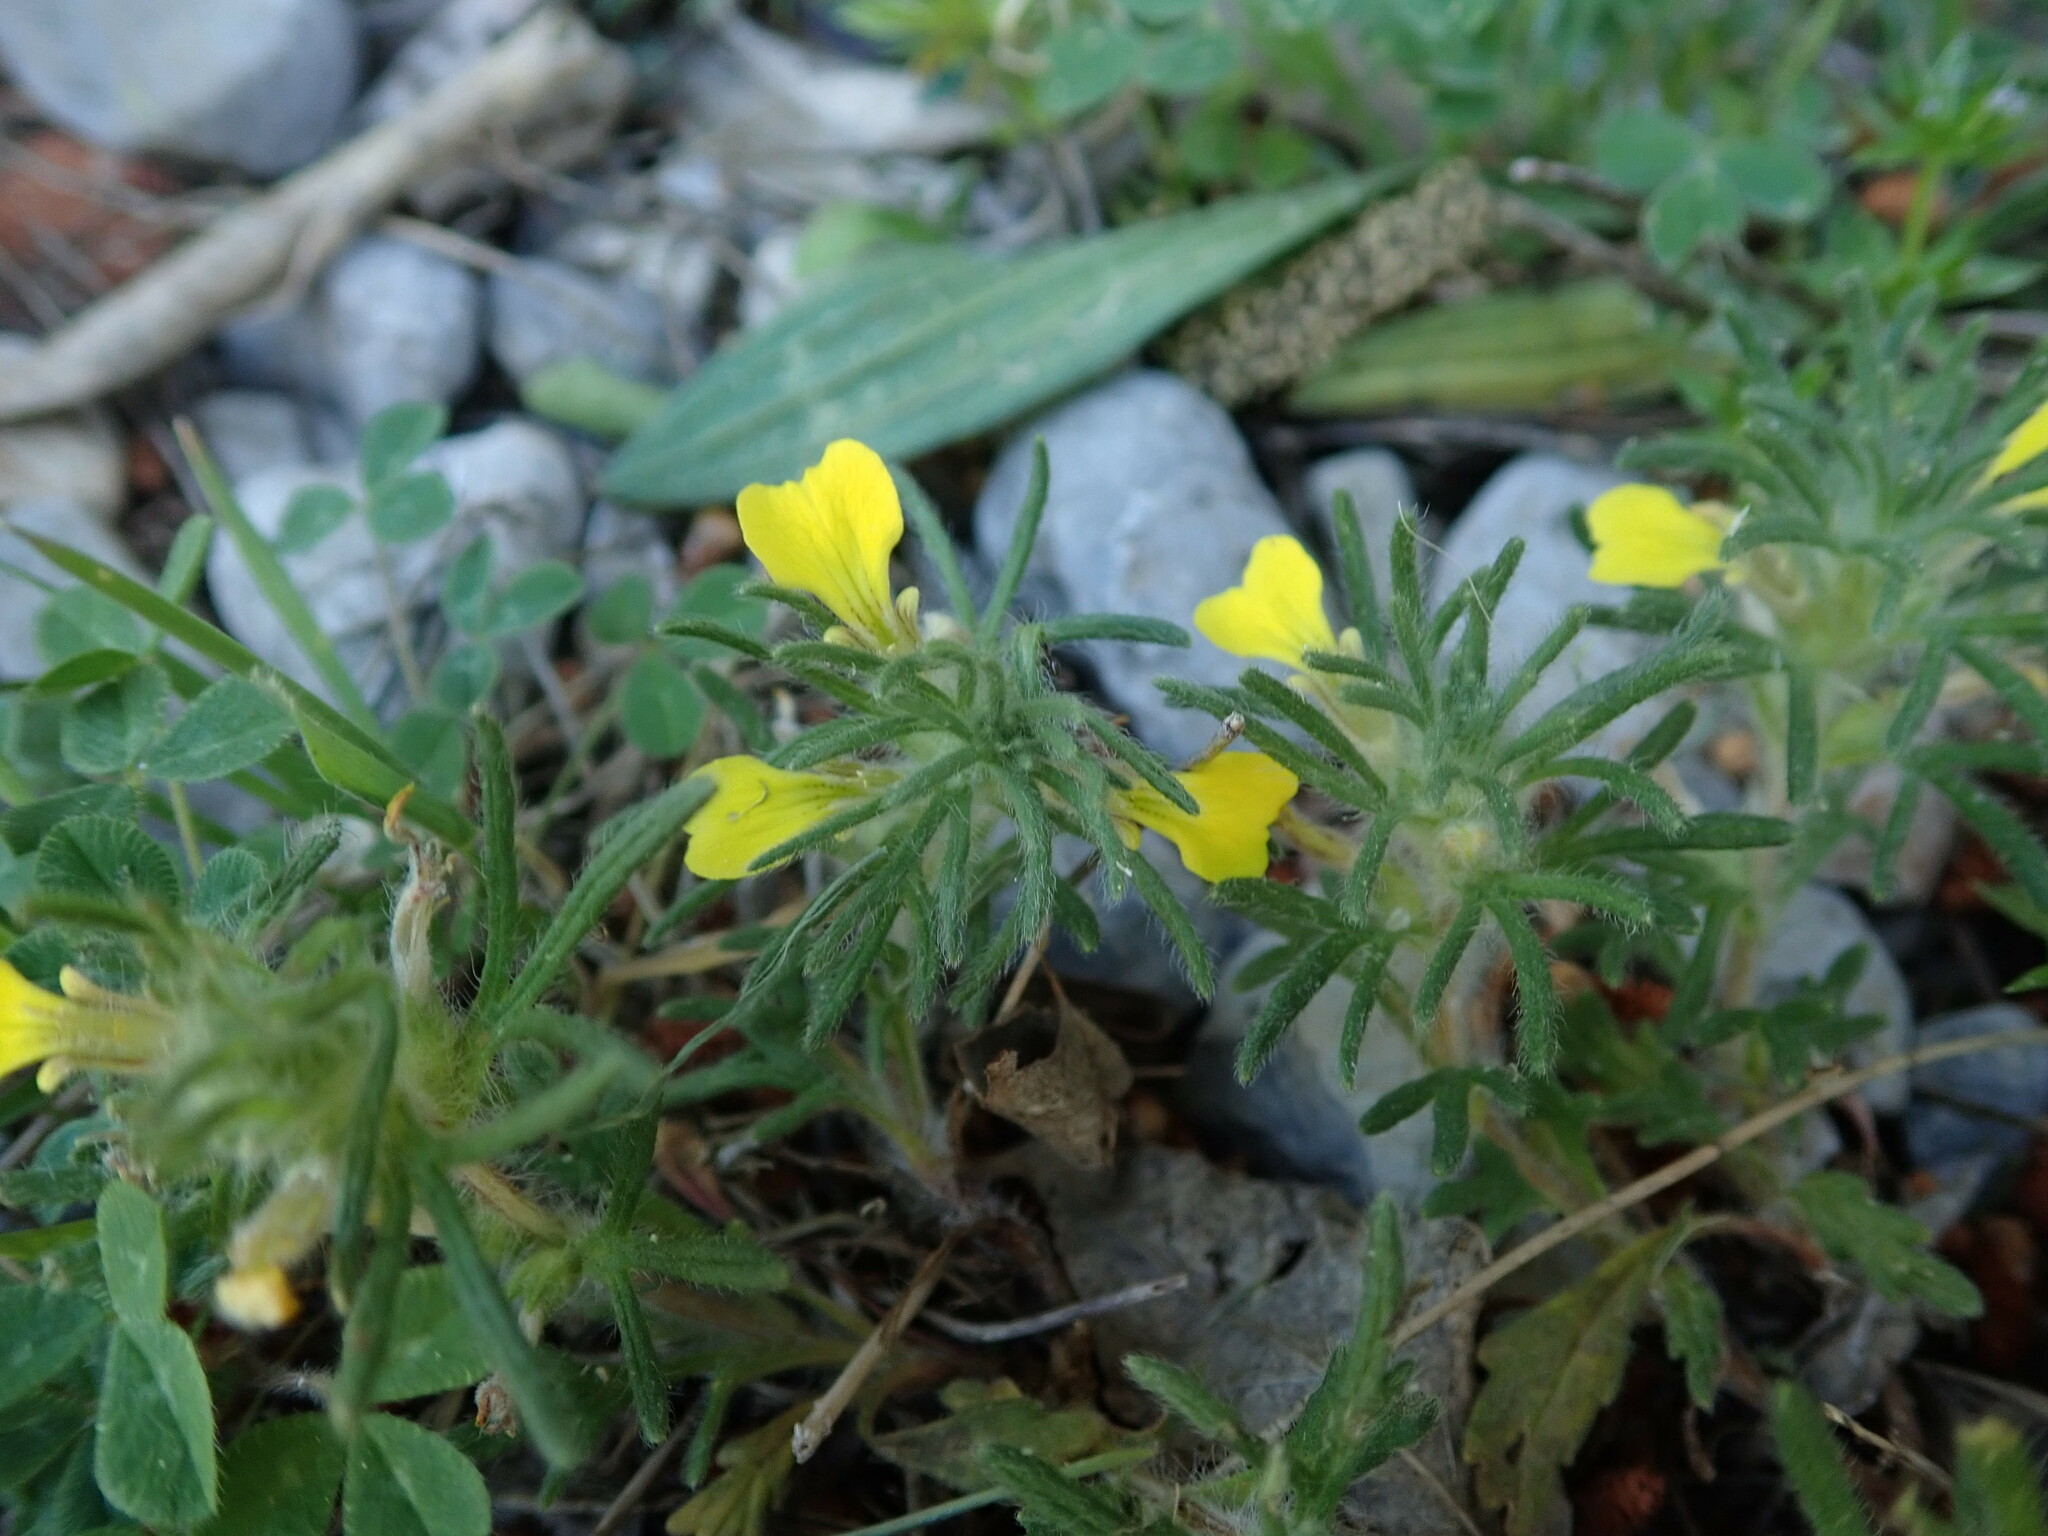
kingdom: Plantae
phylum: Tracheophyta
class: Magnoliopsida
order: Lamiales
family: Lamiaceae
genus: Ajuga
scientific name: Ajuga chamaepitys
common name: Ground-pine
